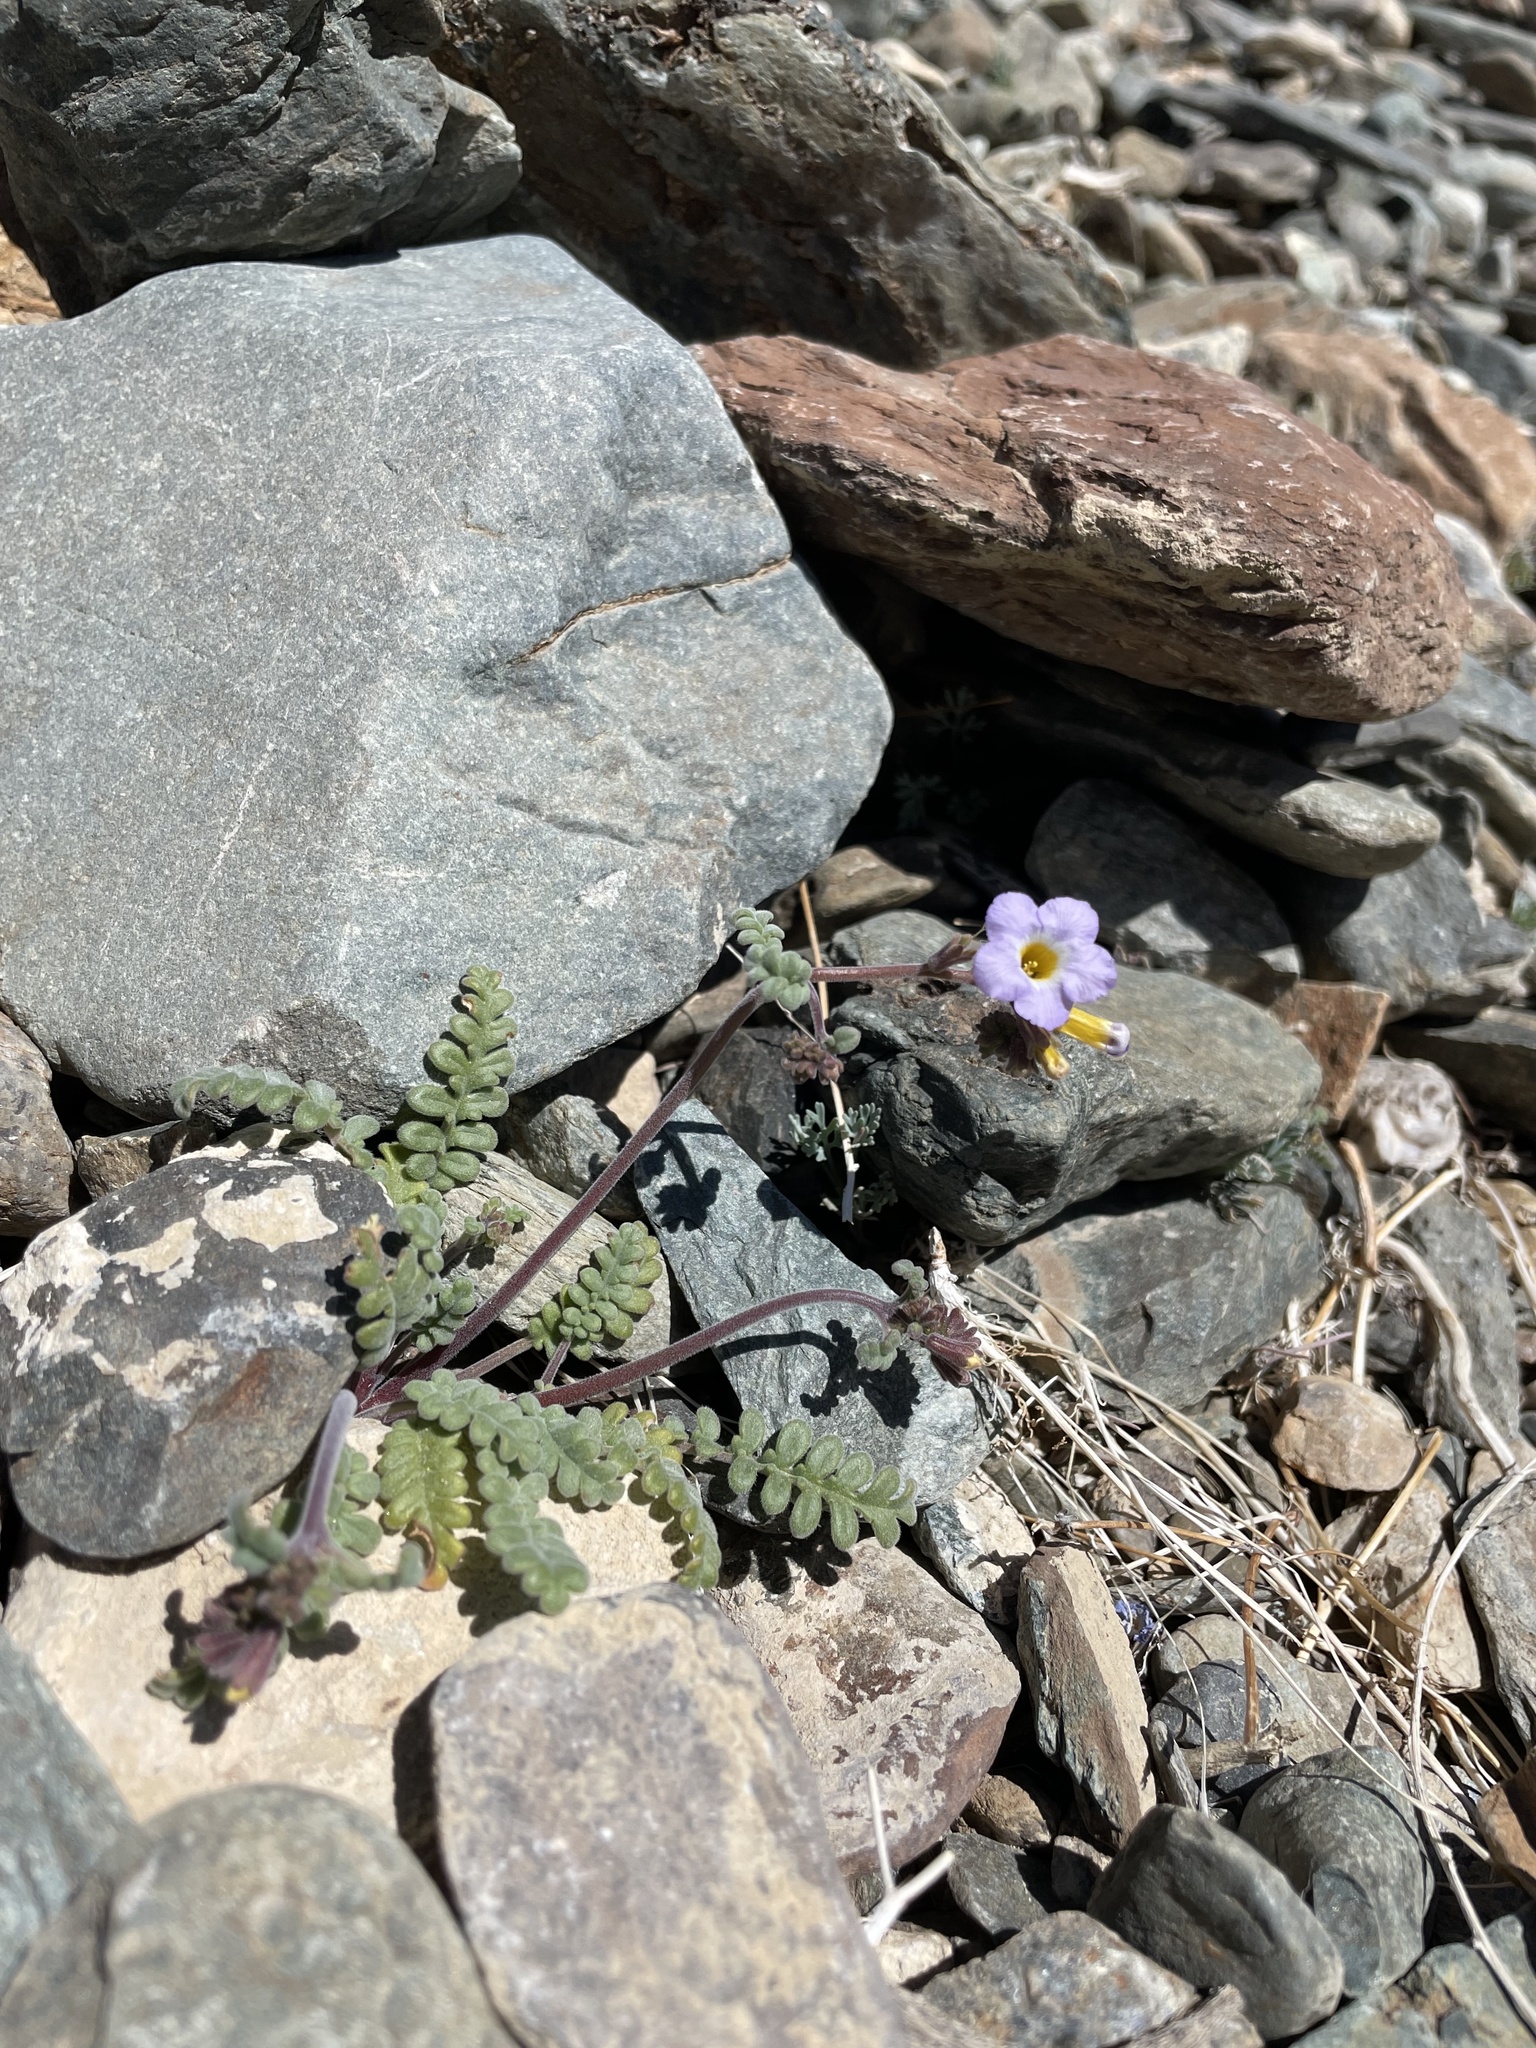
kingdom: Plantae
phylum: Tracheophyta
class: Magnoliopsida
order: Boraginales
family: Hydrophyllaceae
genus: Phacelia
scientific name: Phacelia fremontii
